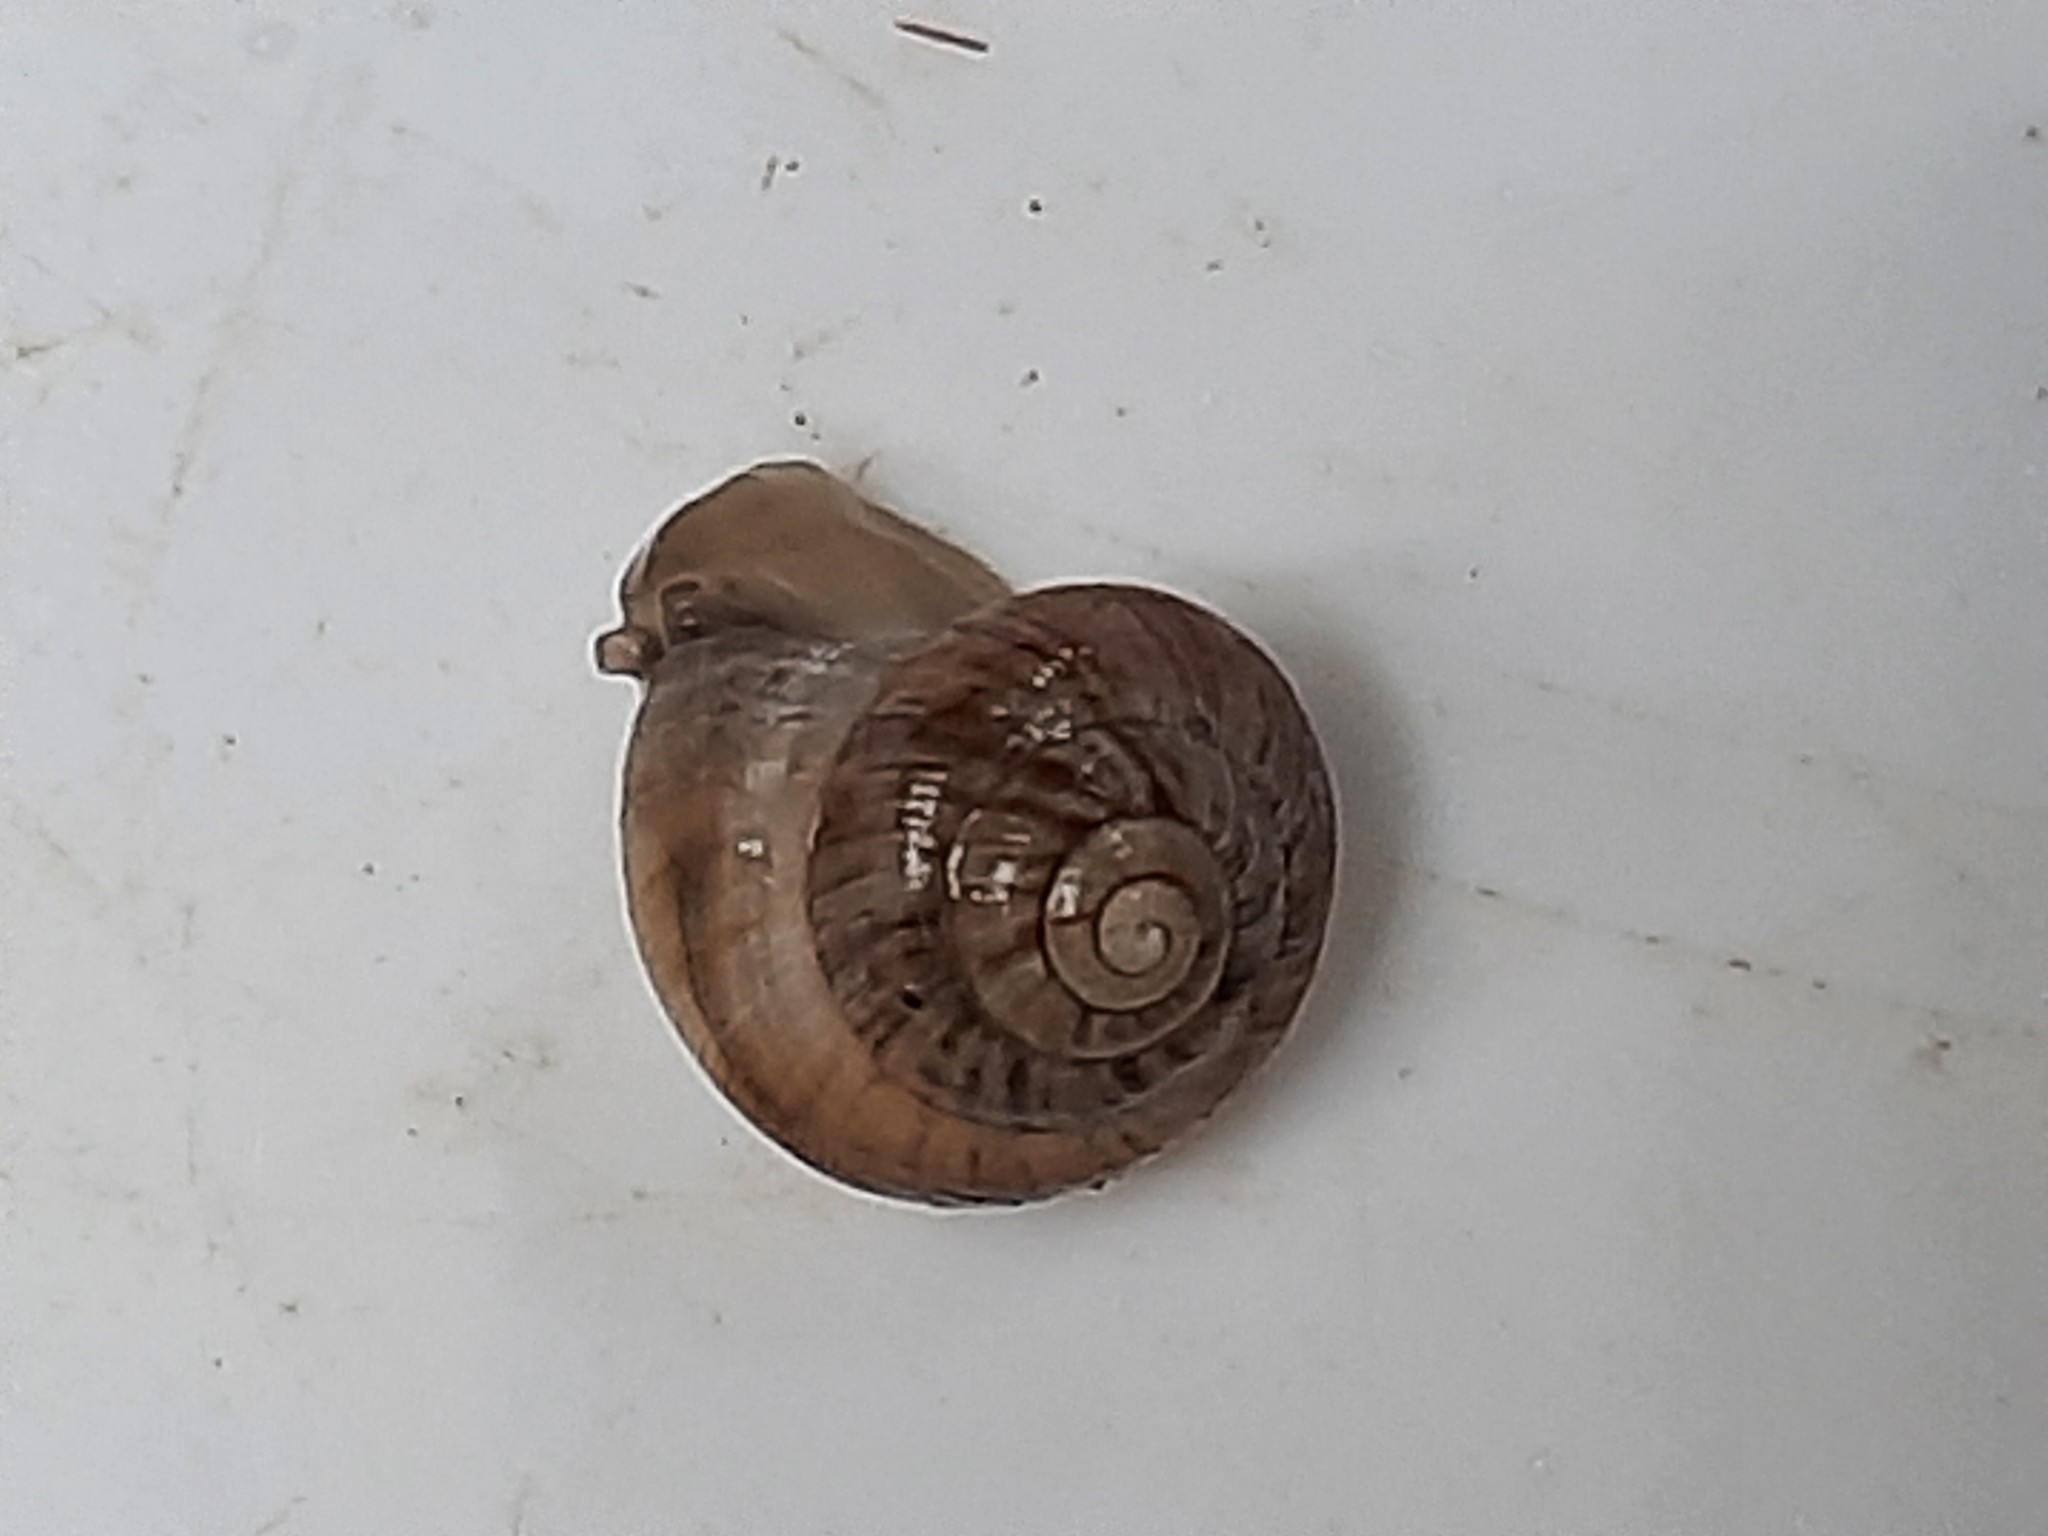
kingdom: Animalia
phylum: Mollusca
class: Gastropoda
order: Stylommatophora
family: Charopidae
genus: Serpho
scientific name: Serpho
